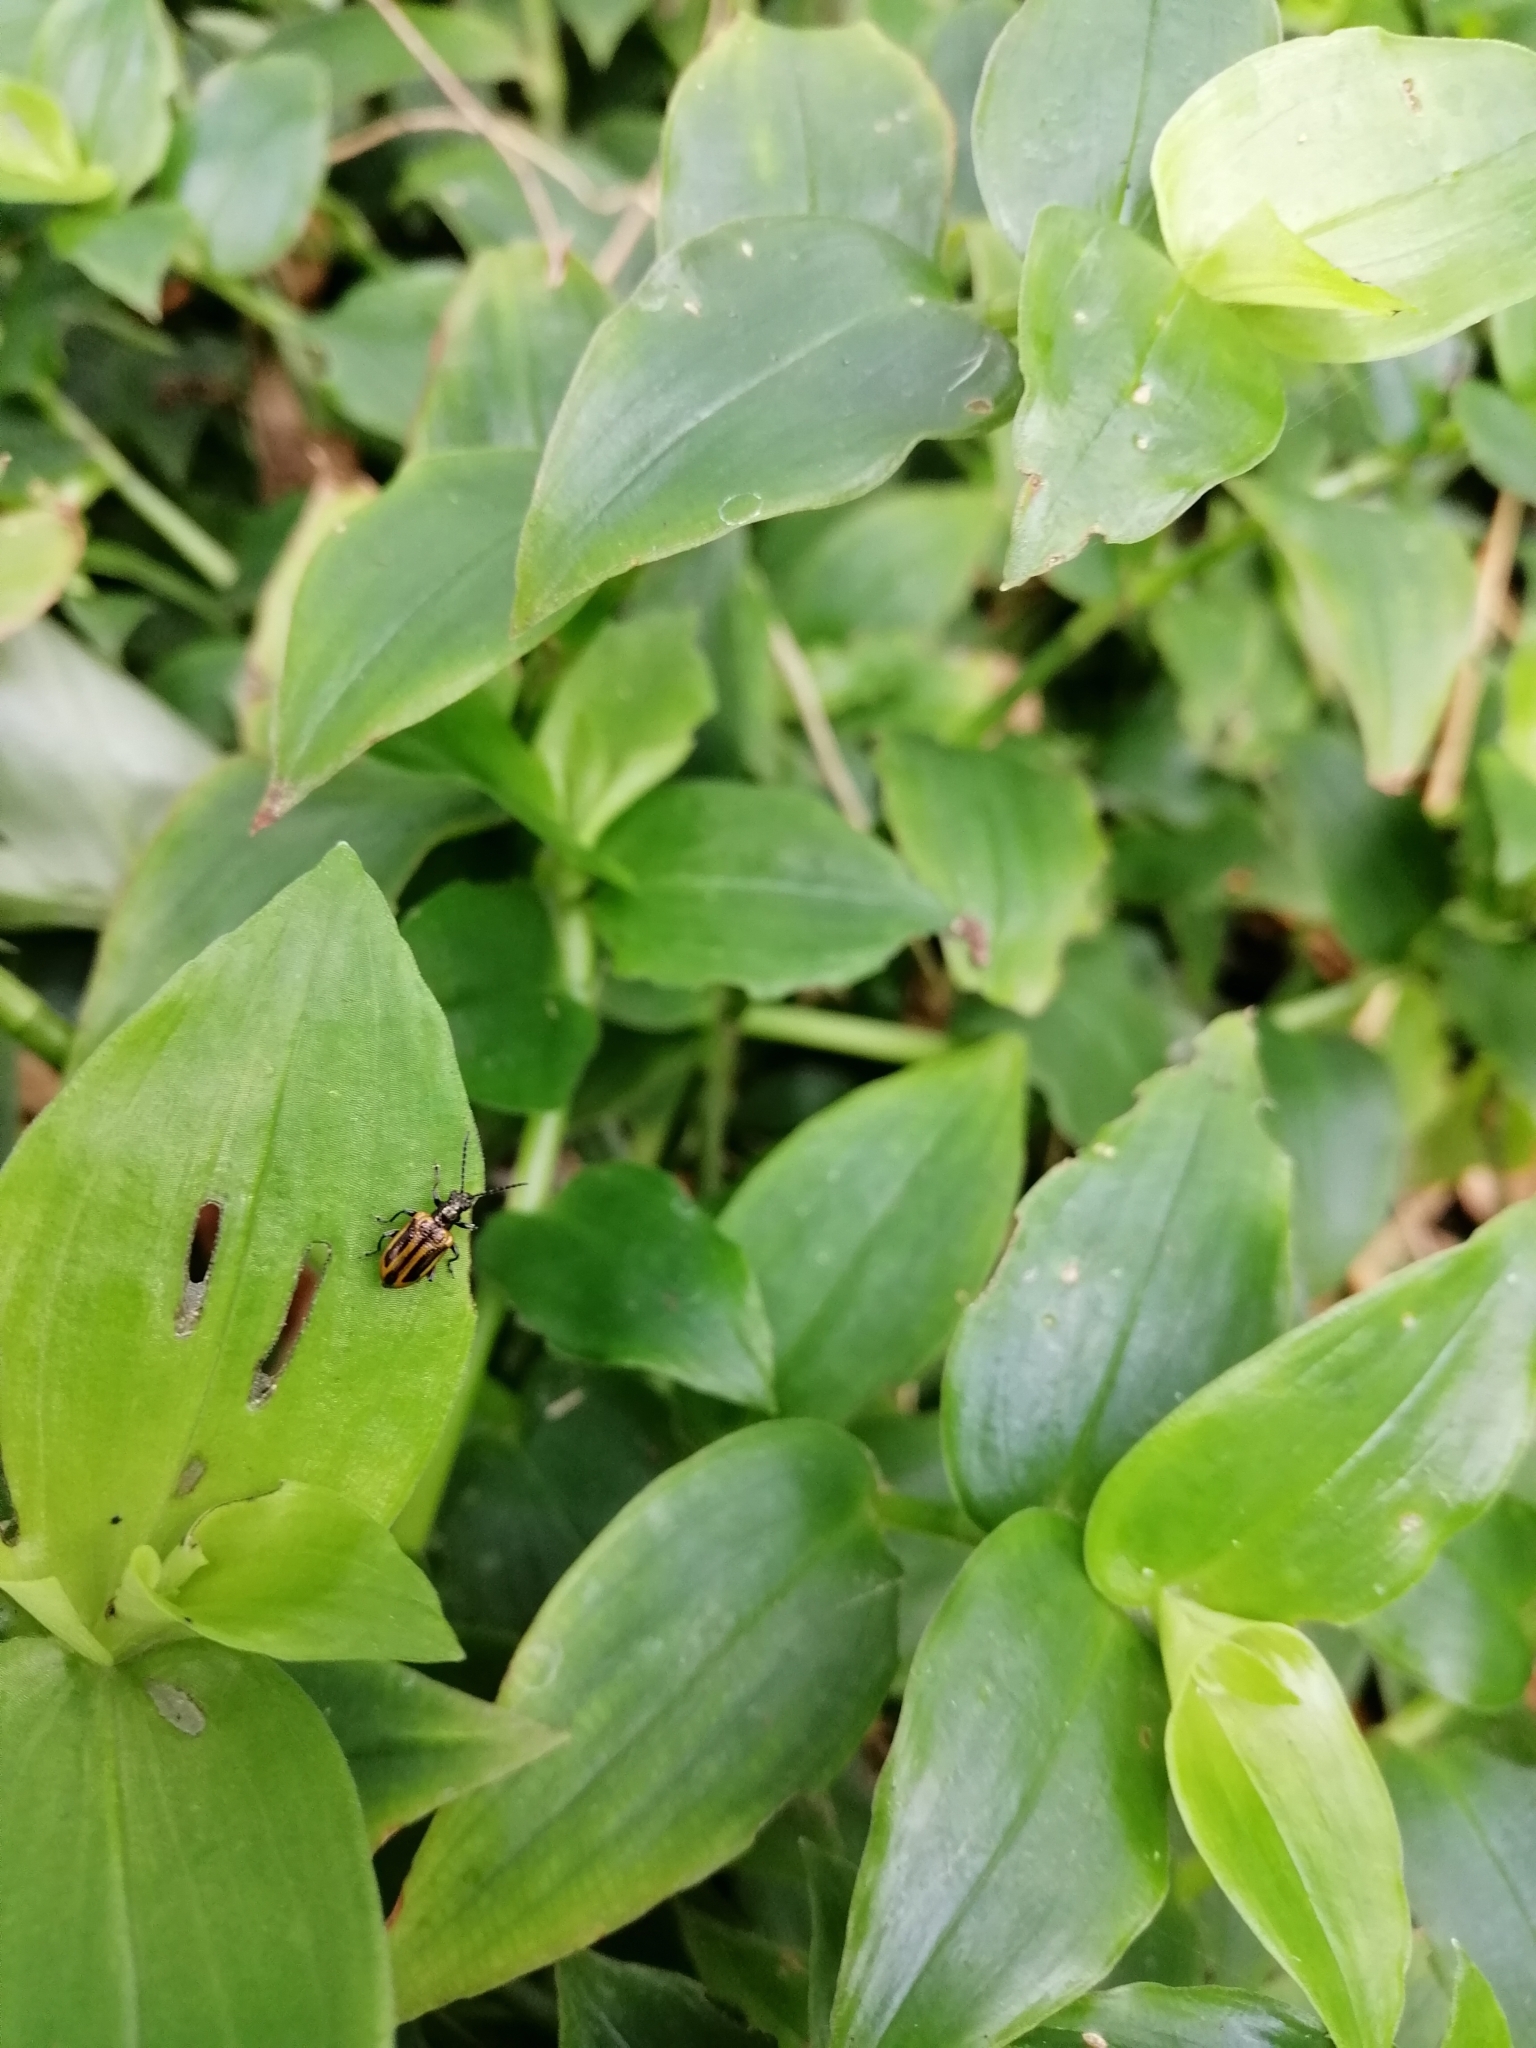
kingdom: Animalia
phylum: Arthropoda
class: Insecta
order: Coleoptera
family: Chrysomelidae
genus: Neolema
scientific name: Neolema
